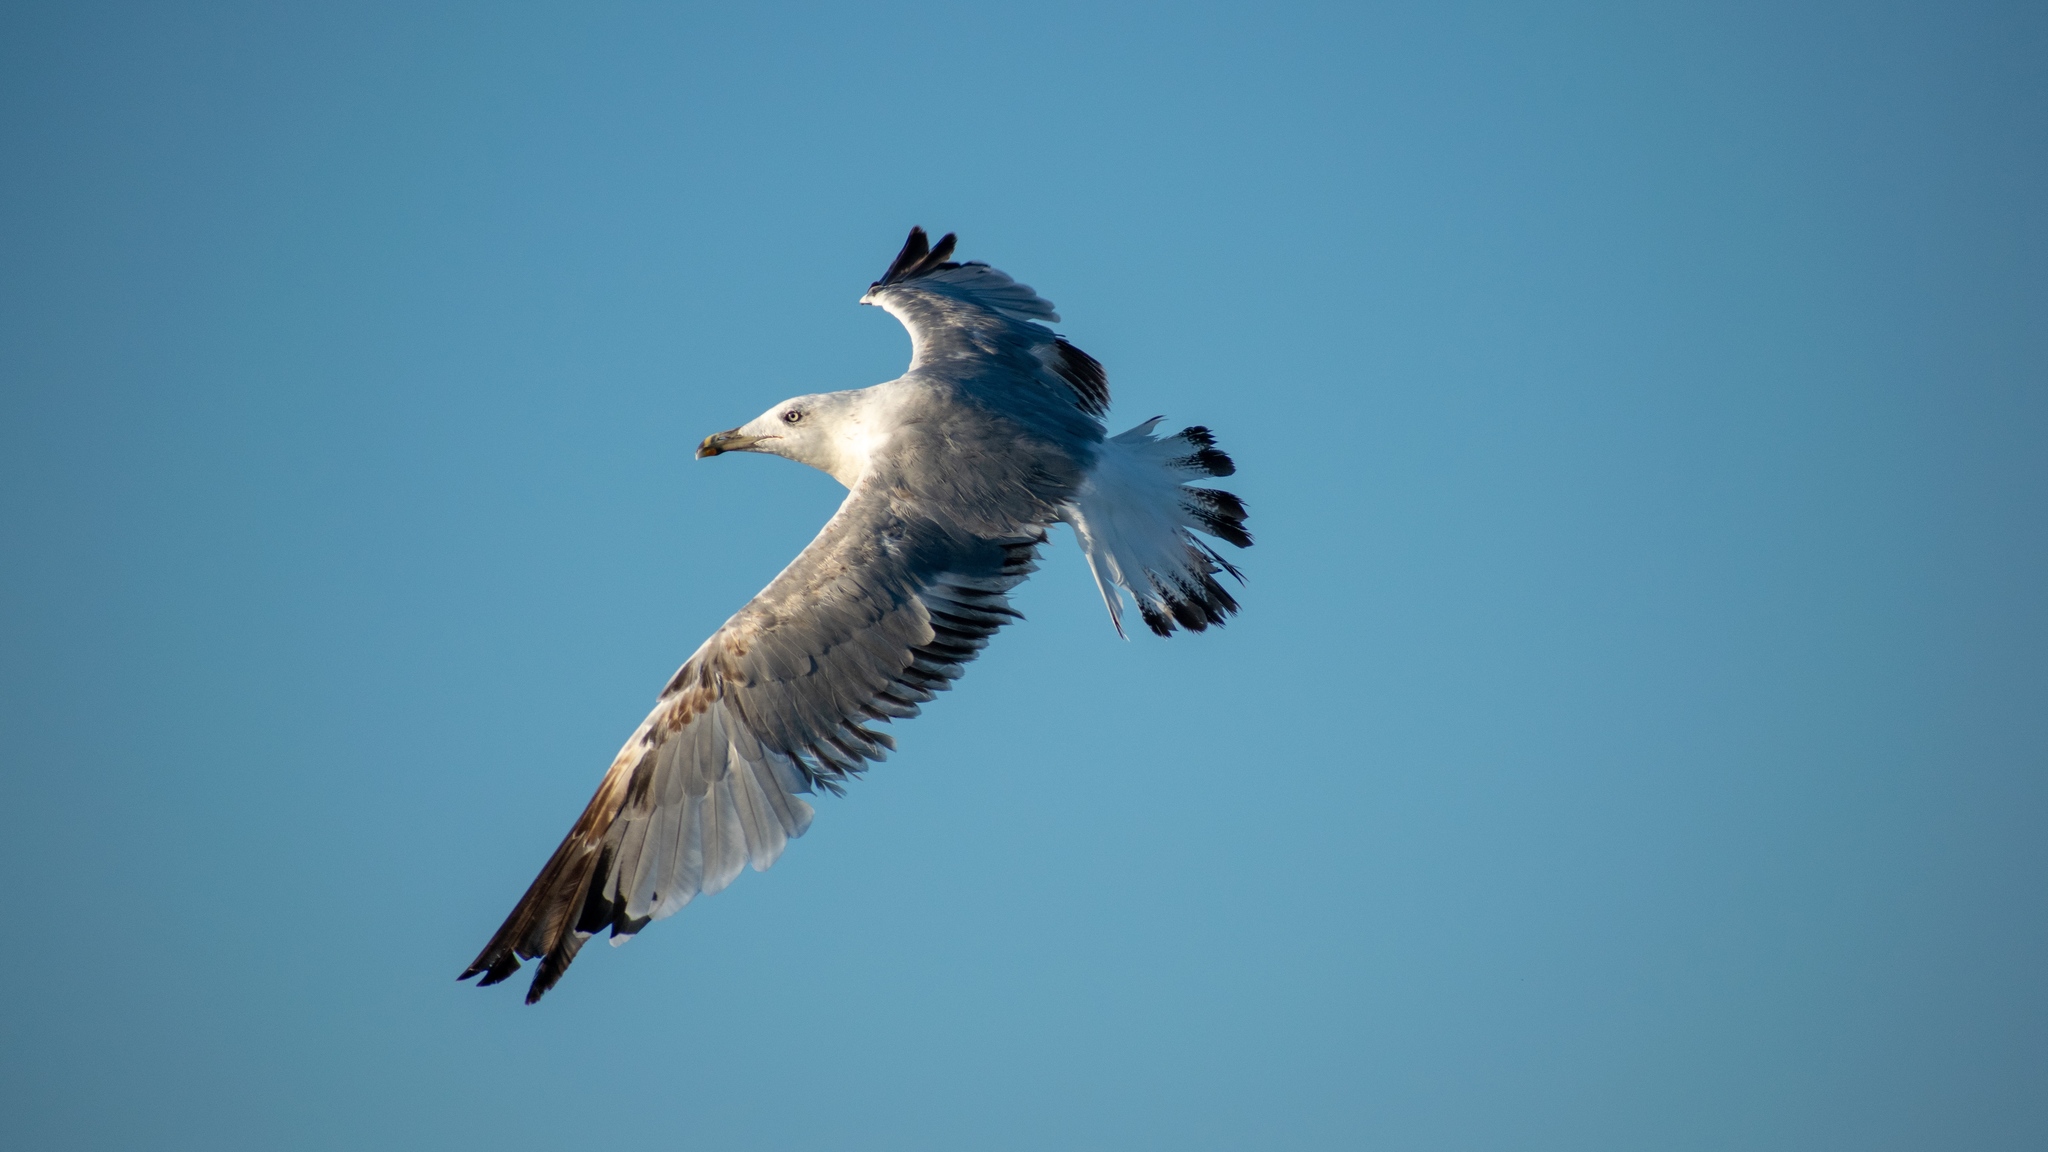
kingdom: Animalia
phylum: Chordata
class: Aves
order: Charadriiformes
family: Laridae
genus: Larus
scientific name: Larus michahellis
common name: Yellow-legged gull
